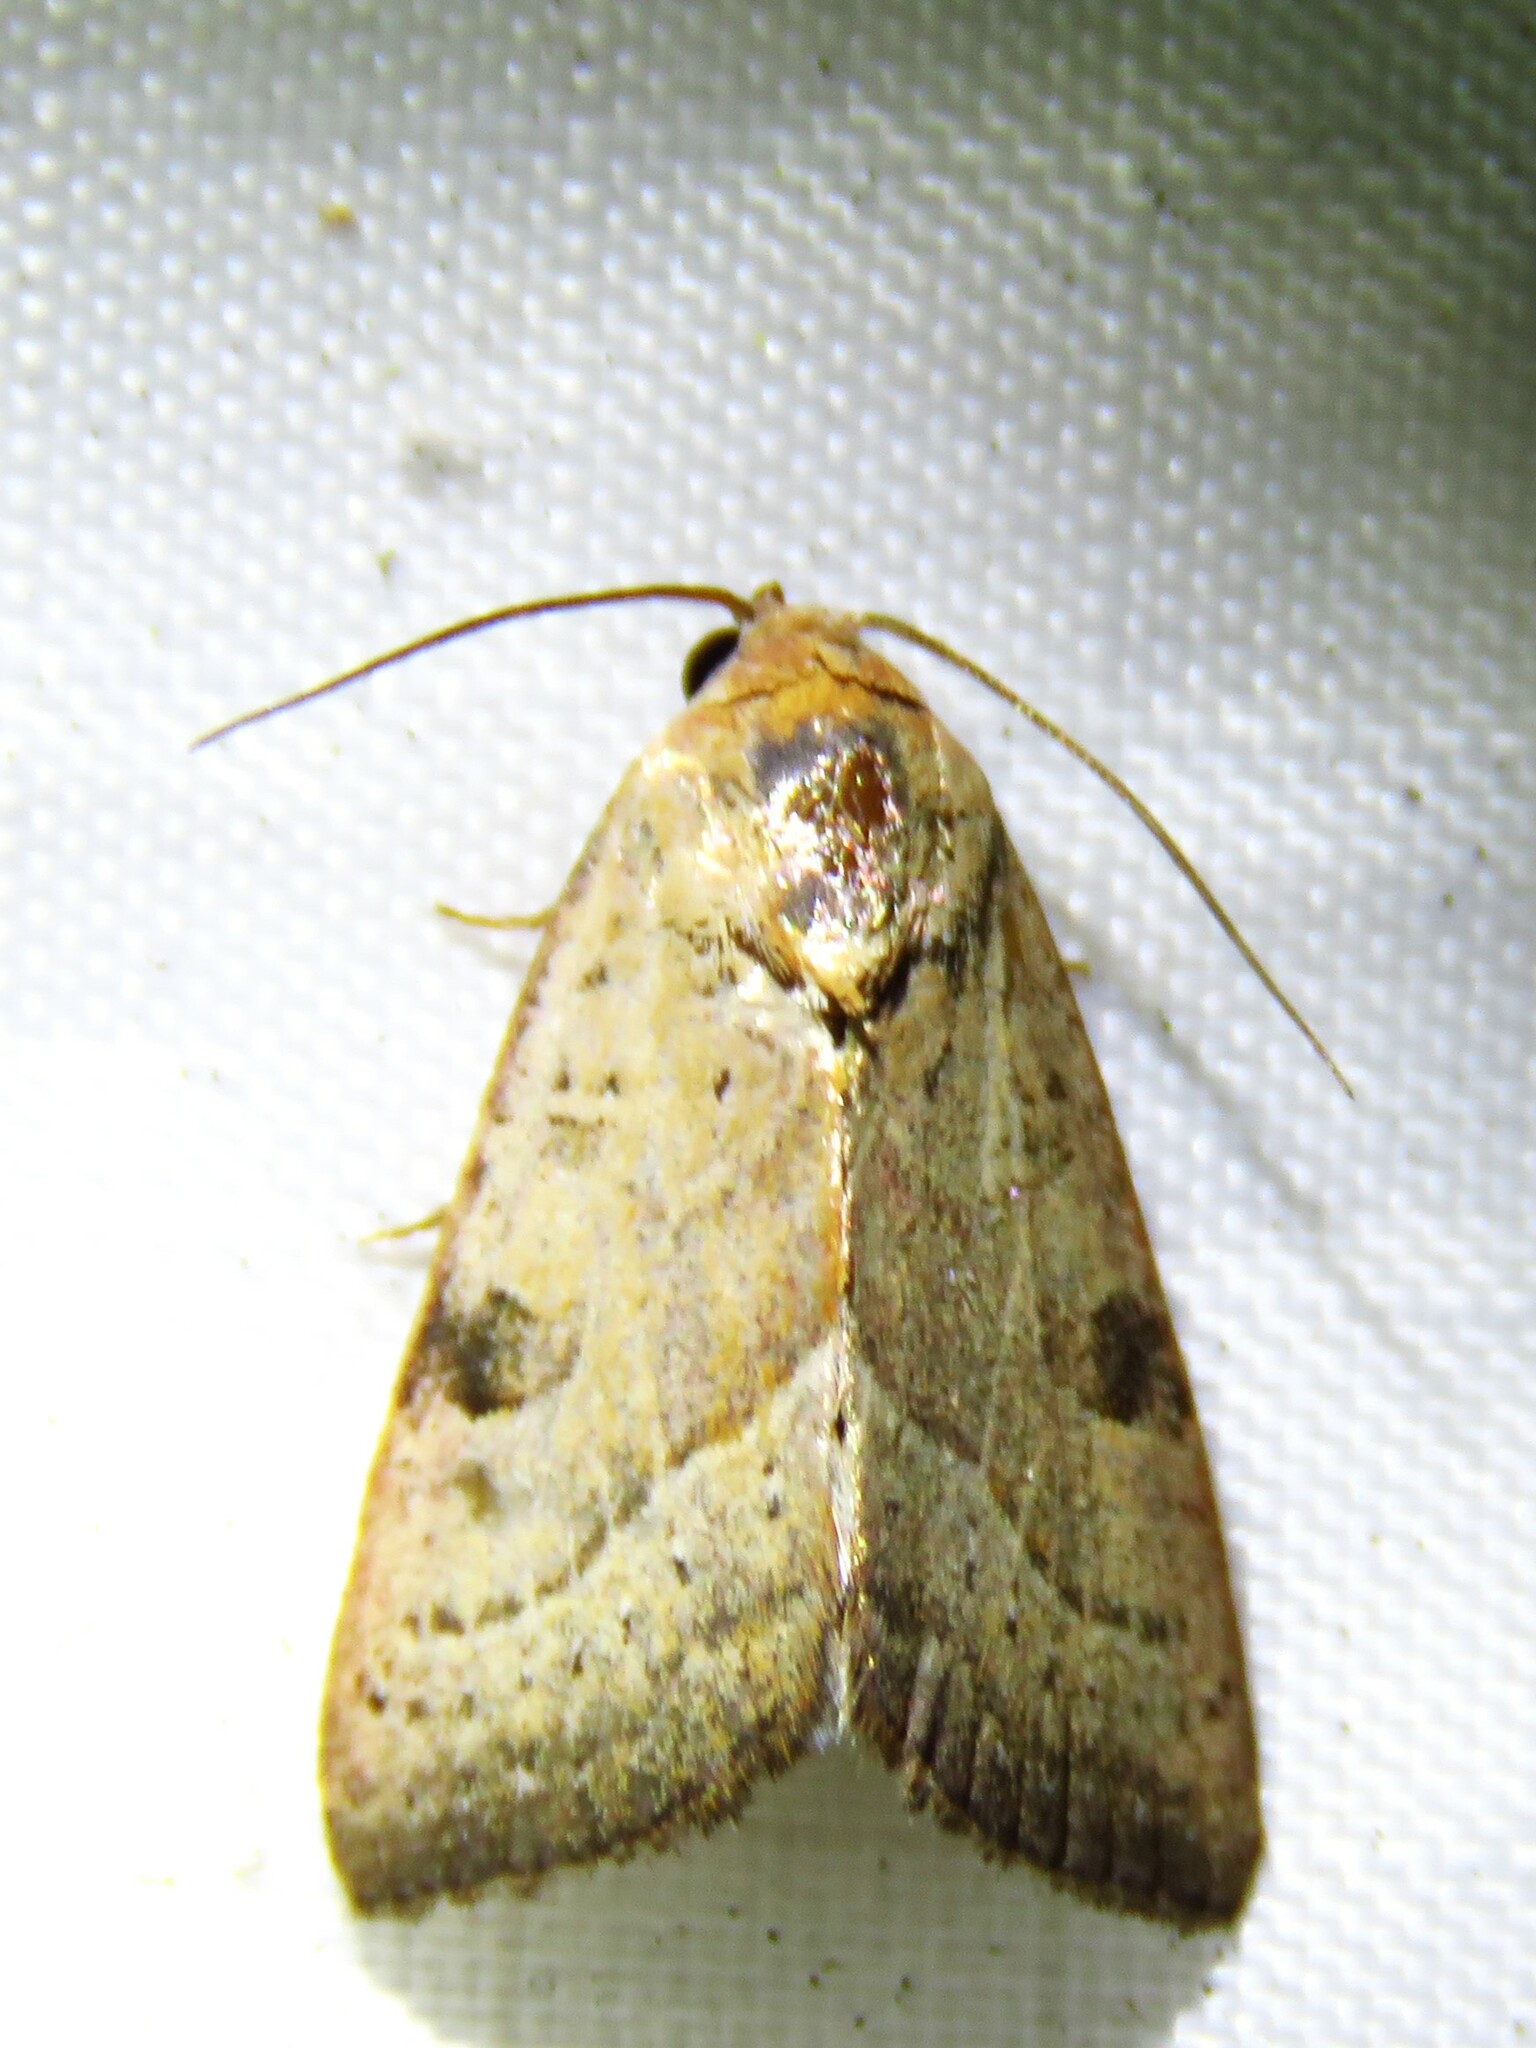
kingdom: Animalia
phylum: Arthropoda
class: Insecta
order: Lepidoptera
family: Noctuidae
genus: Galgula
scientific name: Galgula partita
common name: Wedgeling
